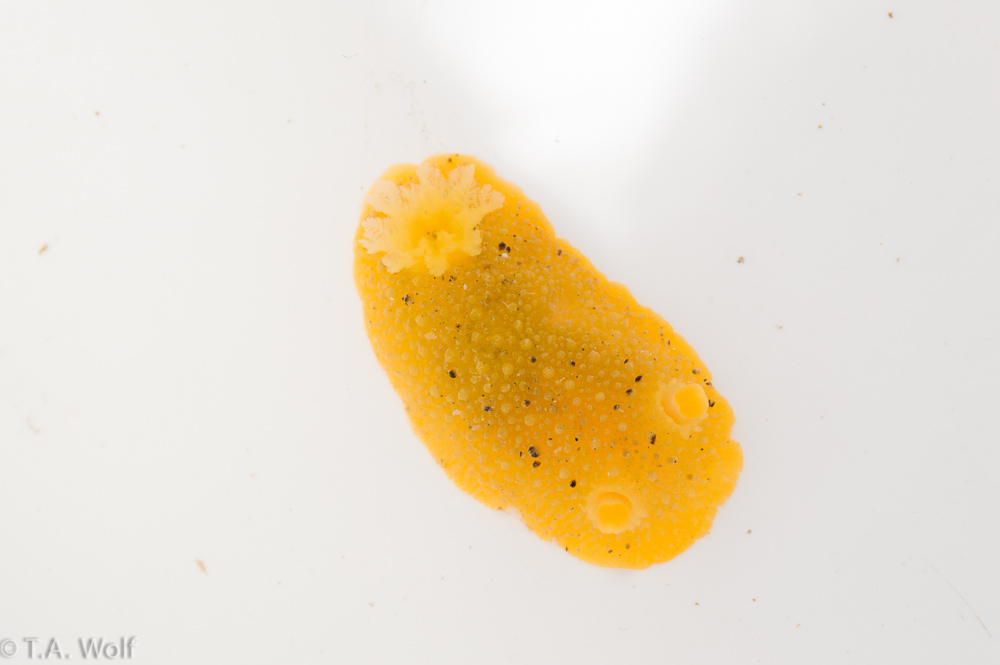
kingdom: Animalia
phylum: Mollusca
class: Gastropoda
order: Nudibranchia
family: Dorididae
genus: Doris
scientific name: Doris montereyensis
